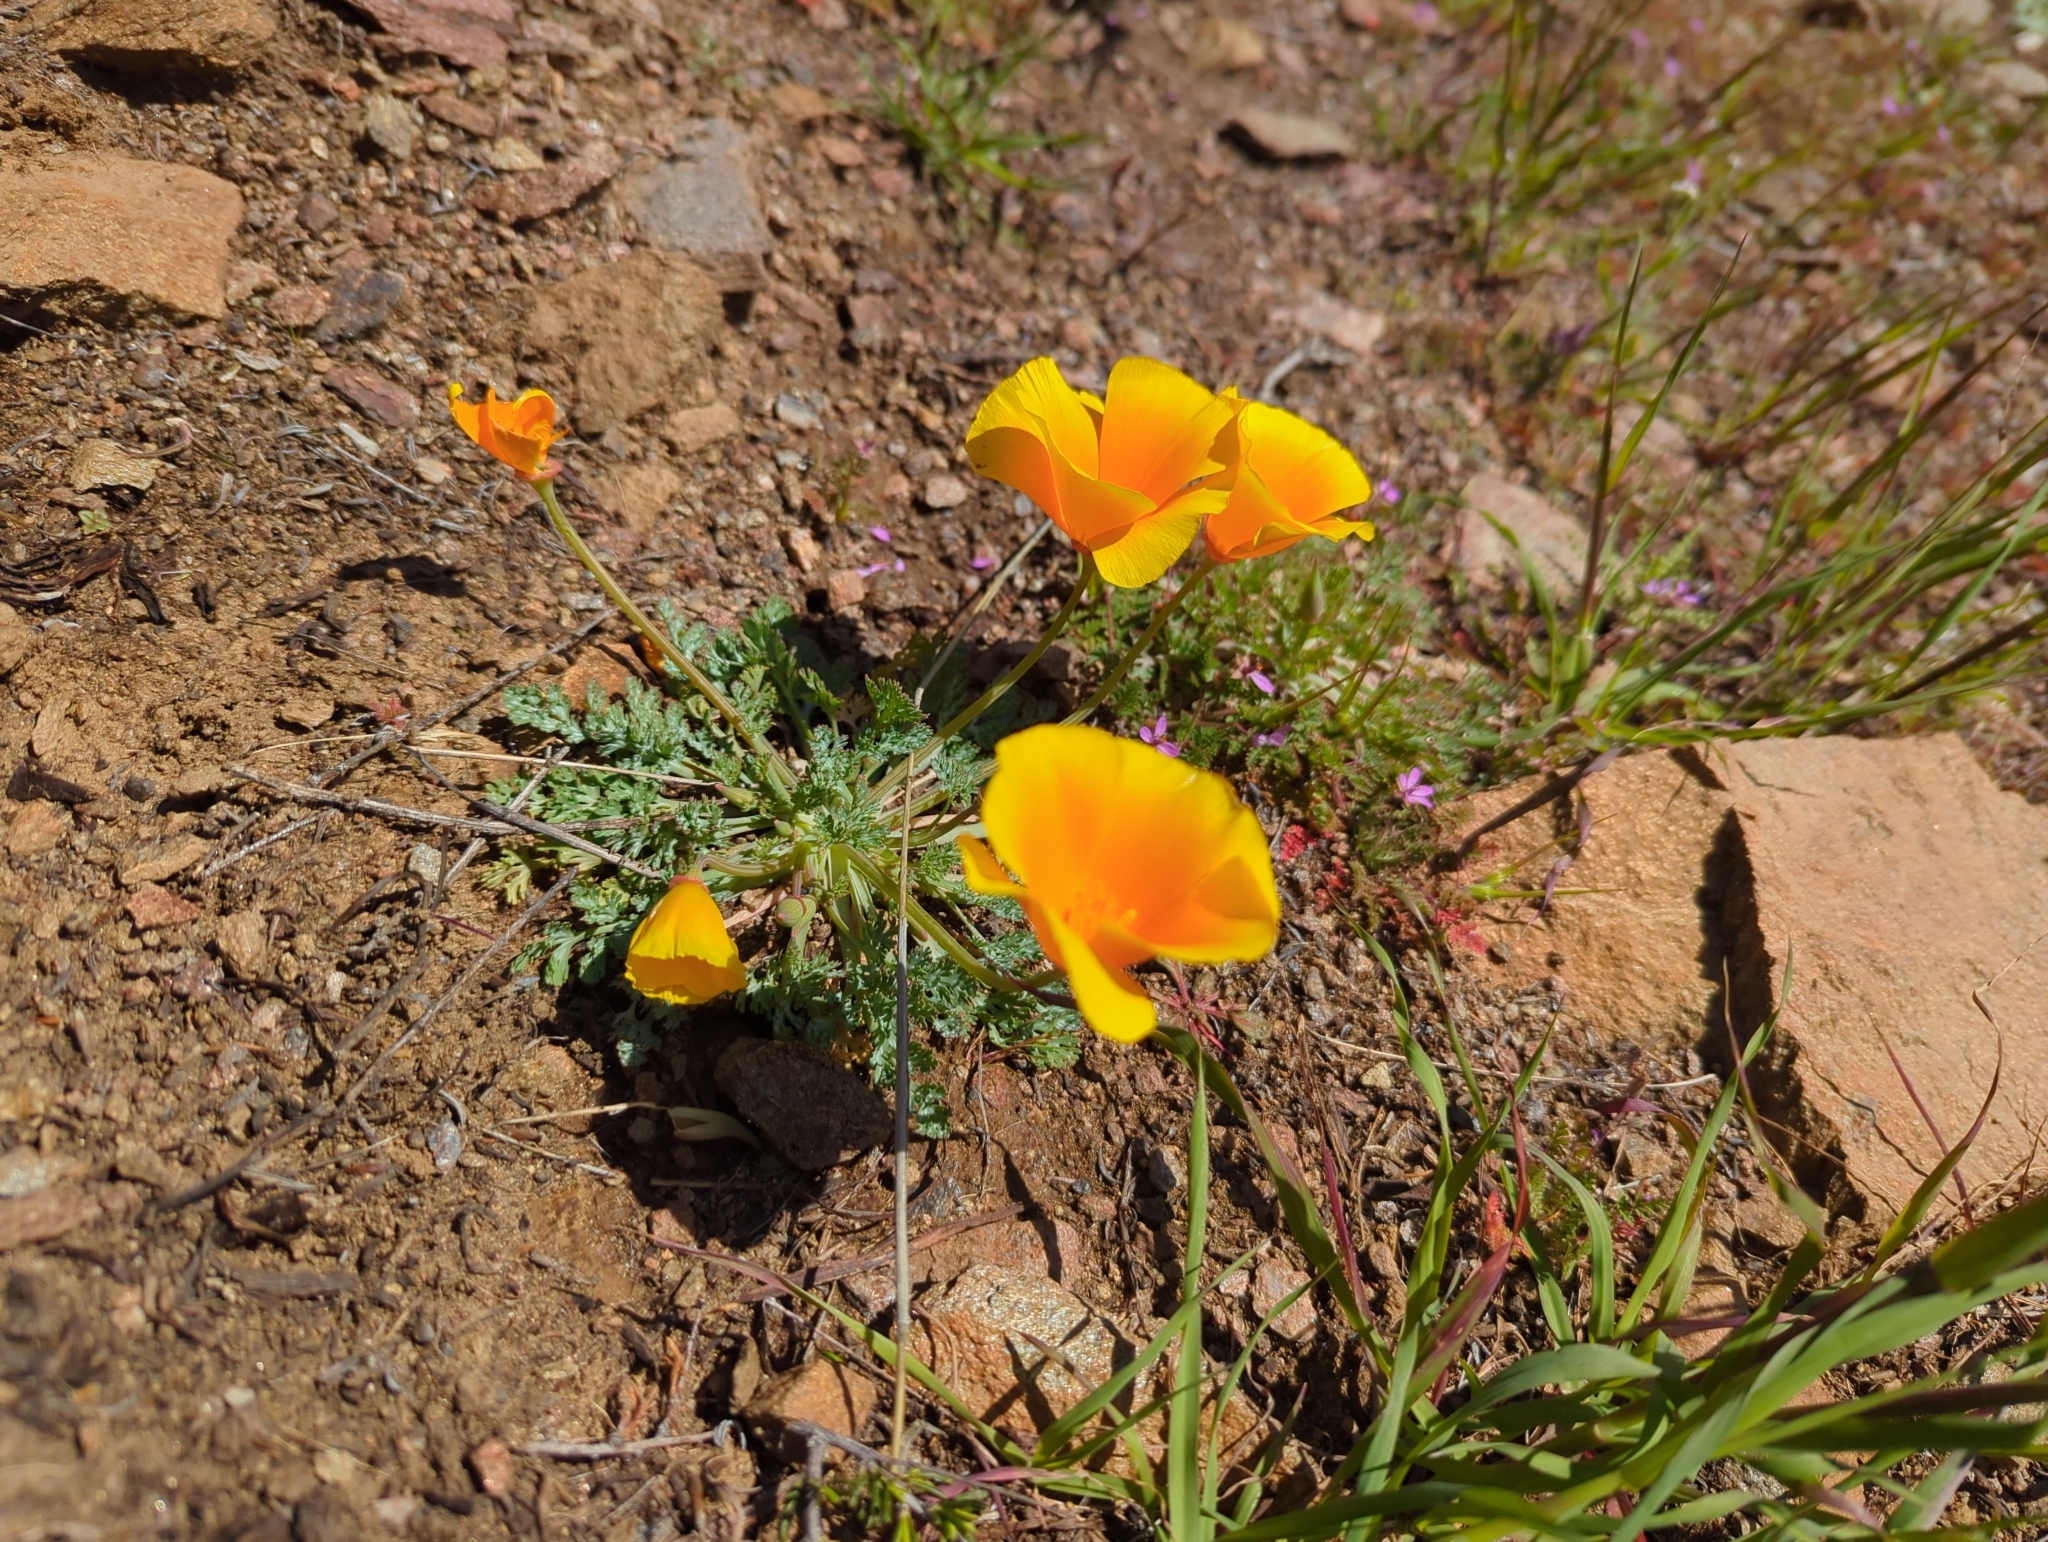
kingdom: Plantae
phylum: Tracheophyta
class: Magnoliopsida
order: Ranunculales
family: Papaveraceae
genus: Eschscholzia
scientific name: Eschscholzia californica
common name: California poppy
